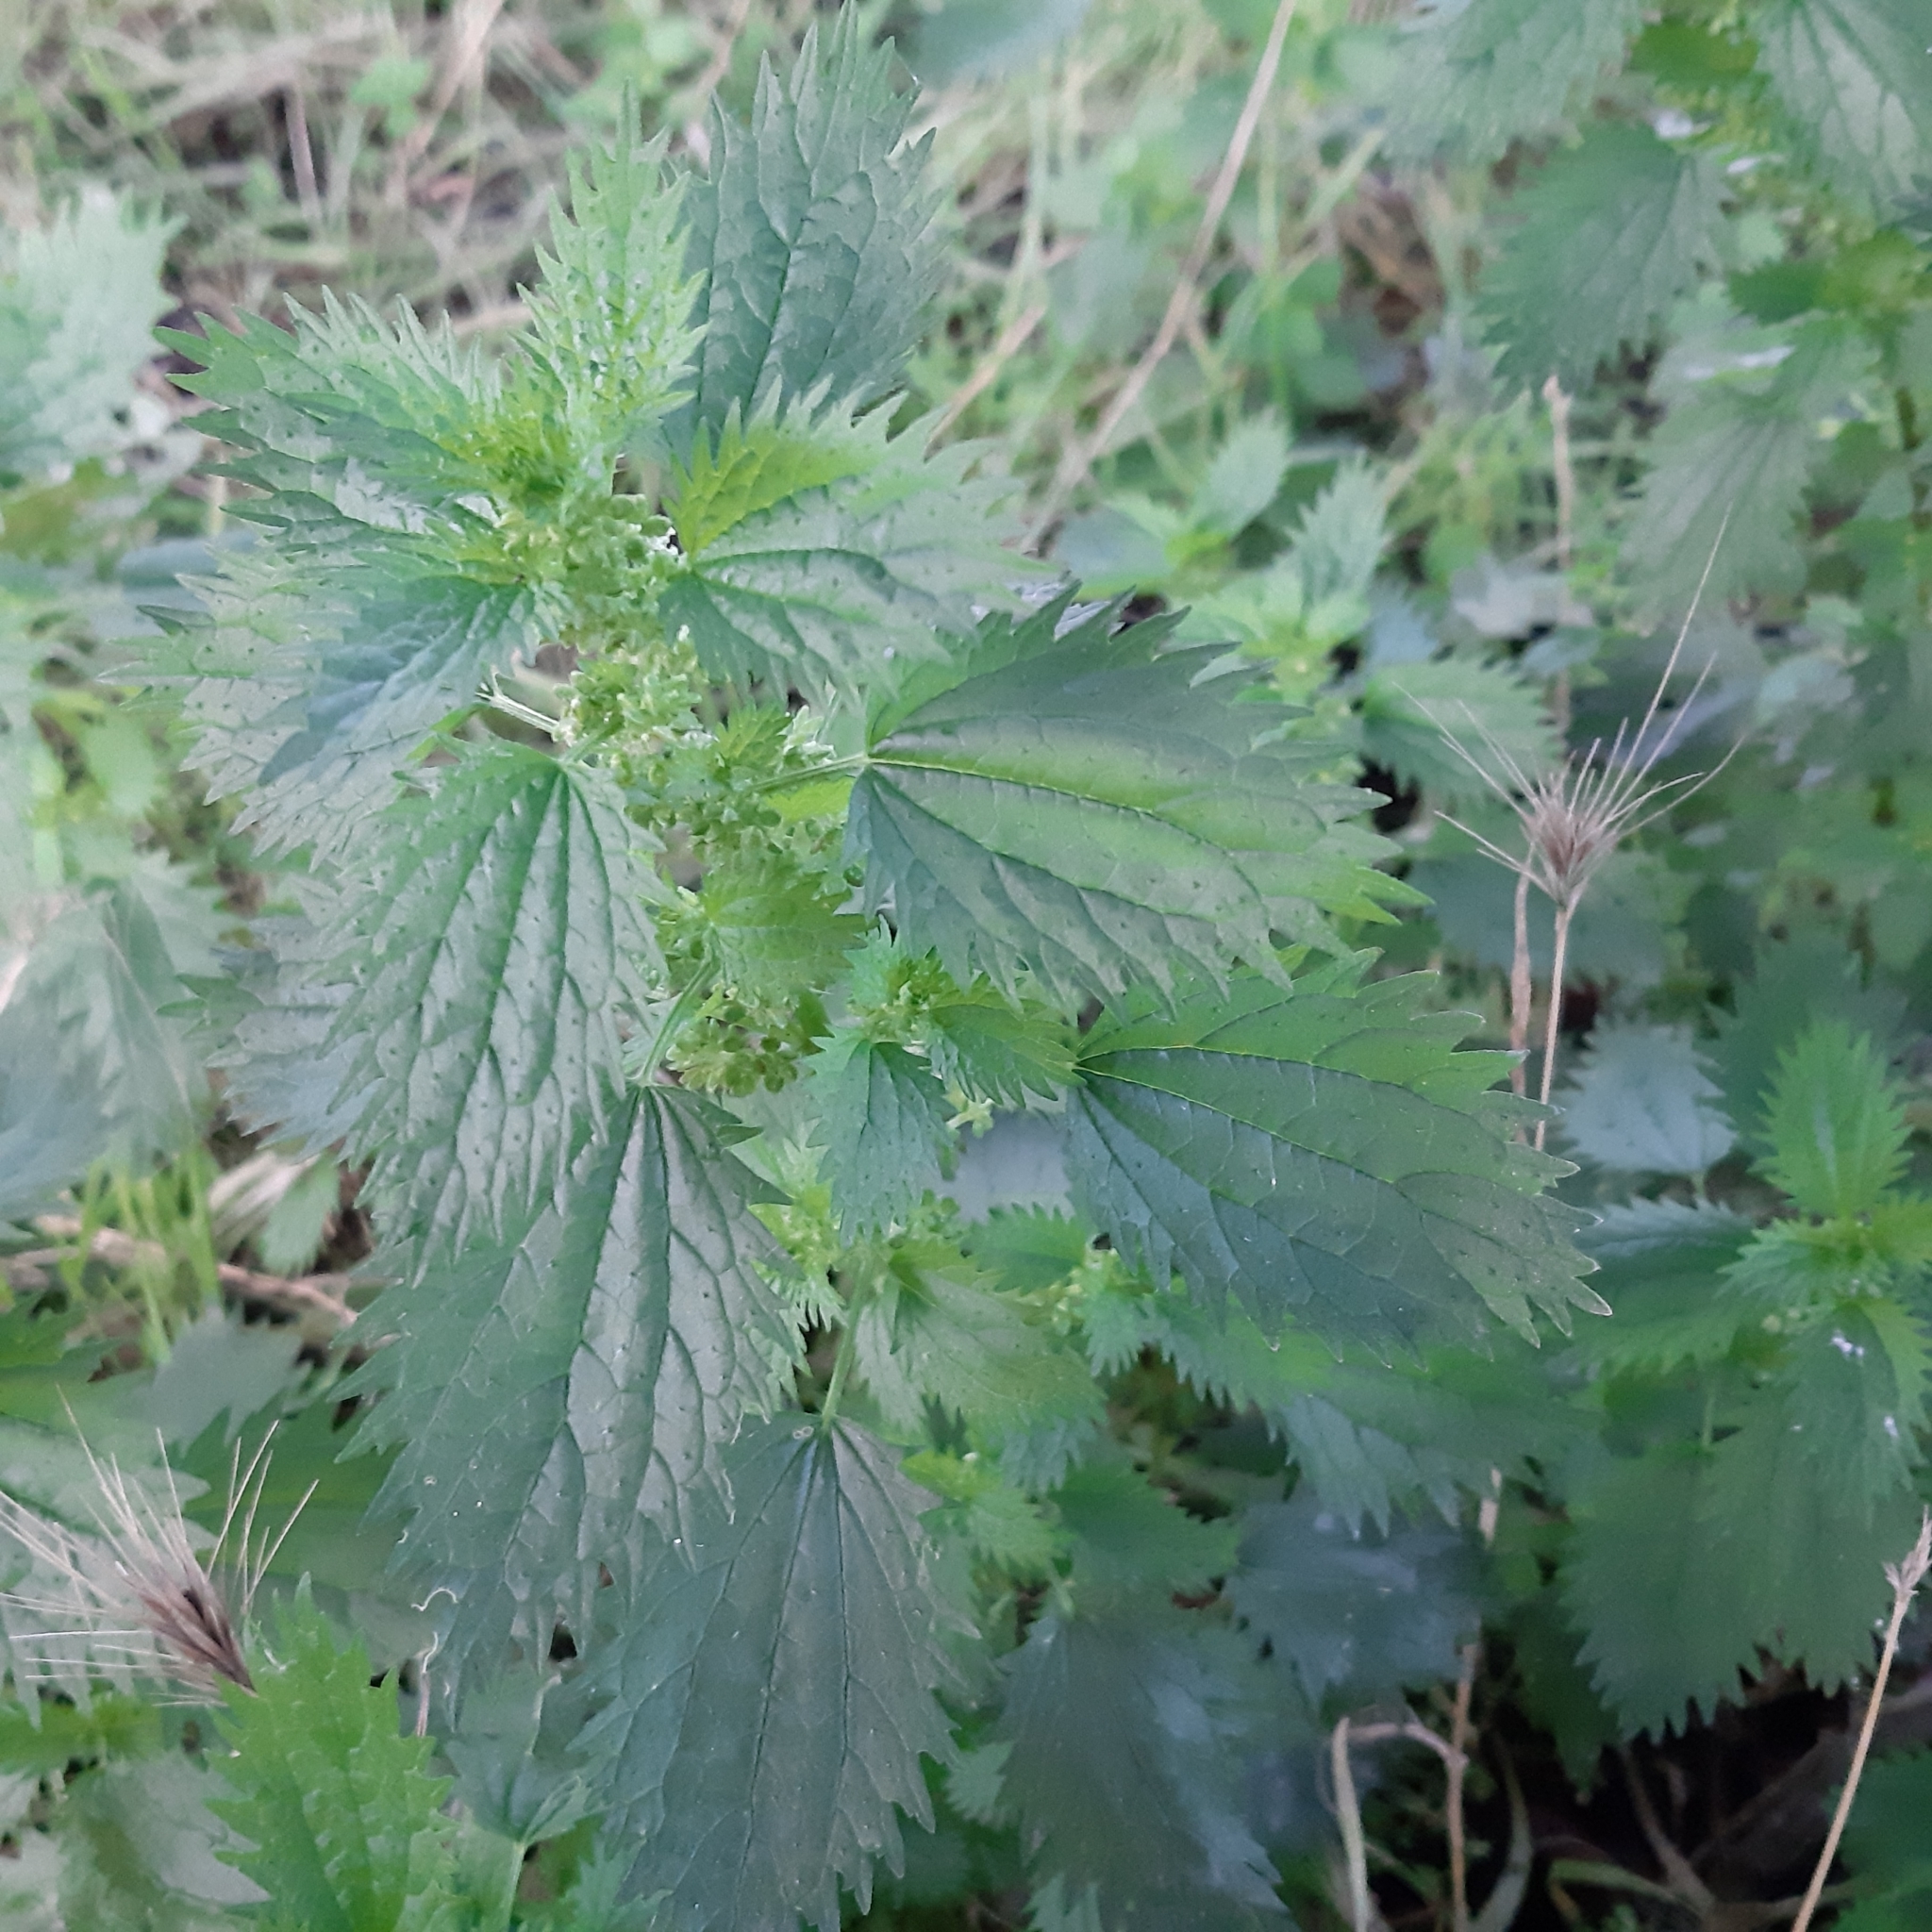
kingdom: Plantae
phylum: Tracheophyta
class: Magnoliopsida
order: Rosales
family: Urticaceae
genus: Urtica
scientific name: Urtica urens
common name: Dwarf nettle
